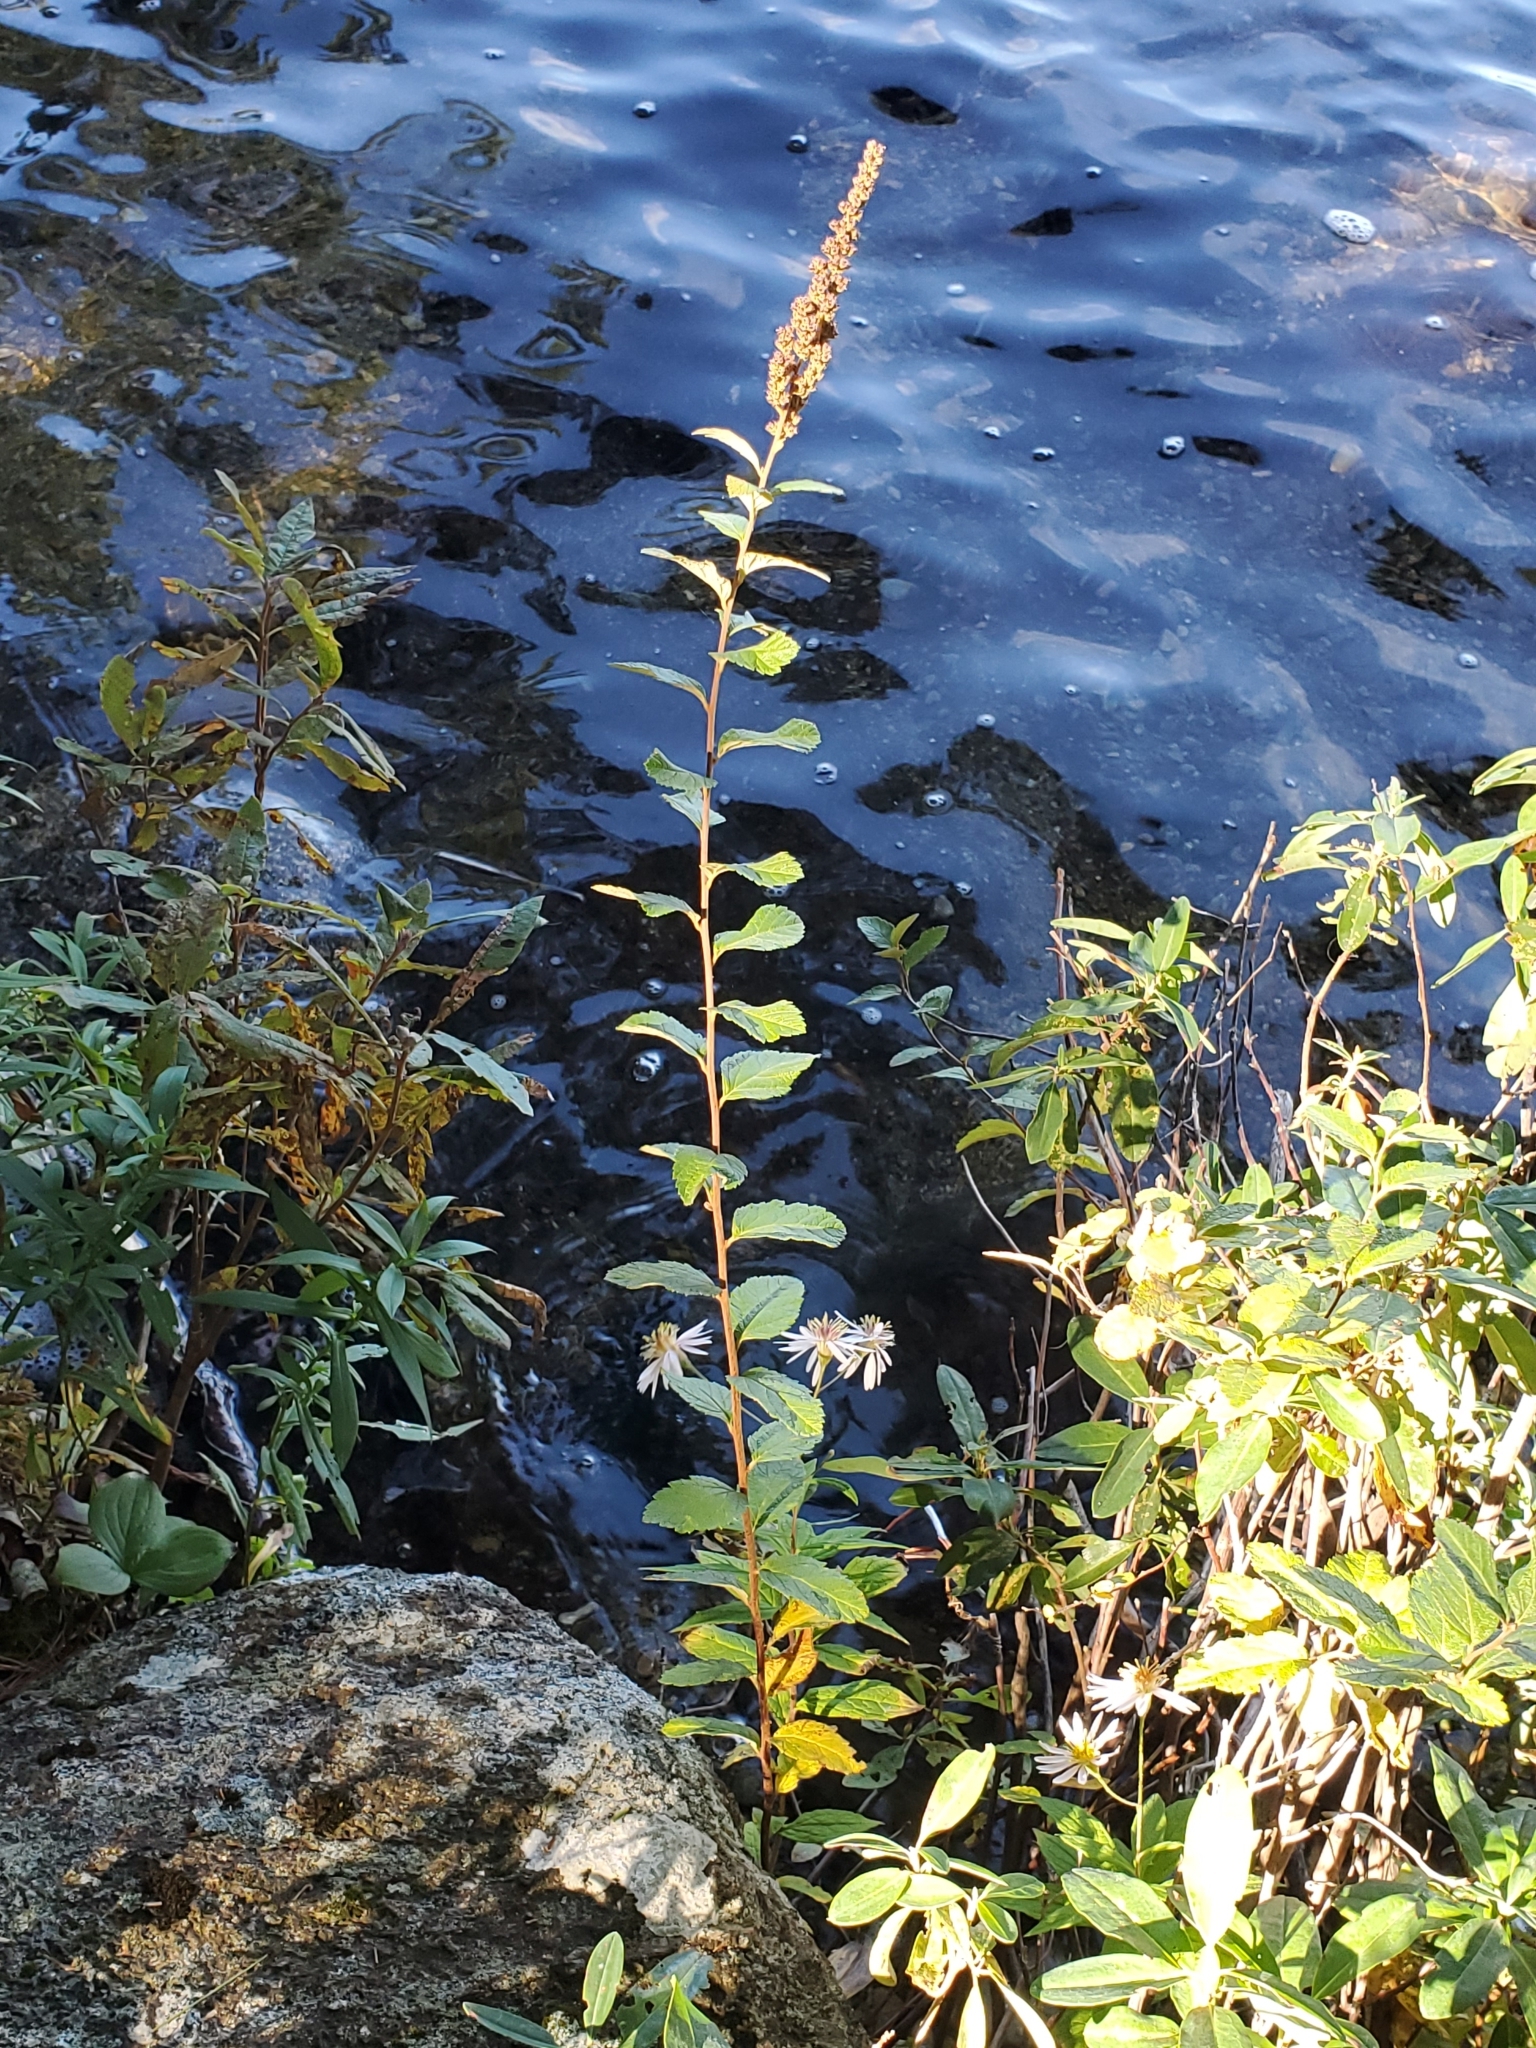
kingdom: Plantae
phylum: Tracheophyta
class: Magnoliopsida
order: Rosales
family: Rosaceae
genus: Spiraea
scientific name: Spiraea tomentosa
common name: Hardhack
